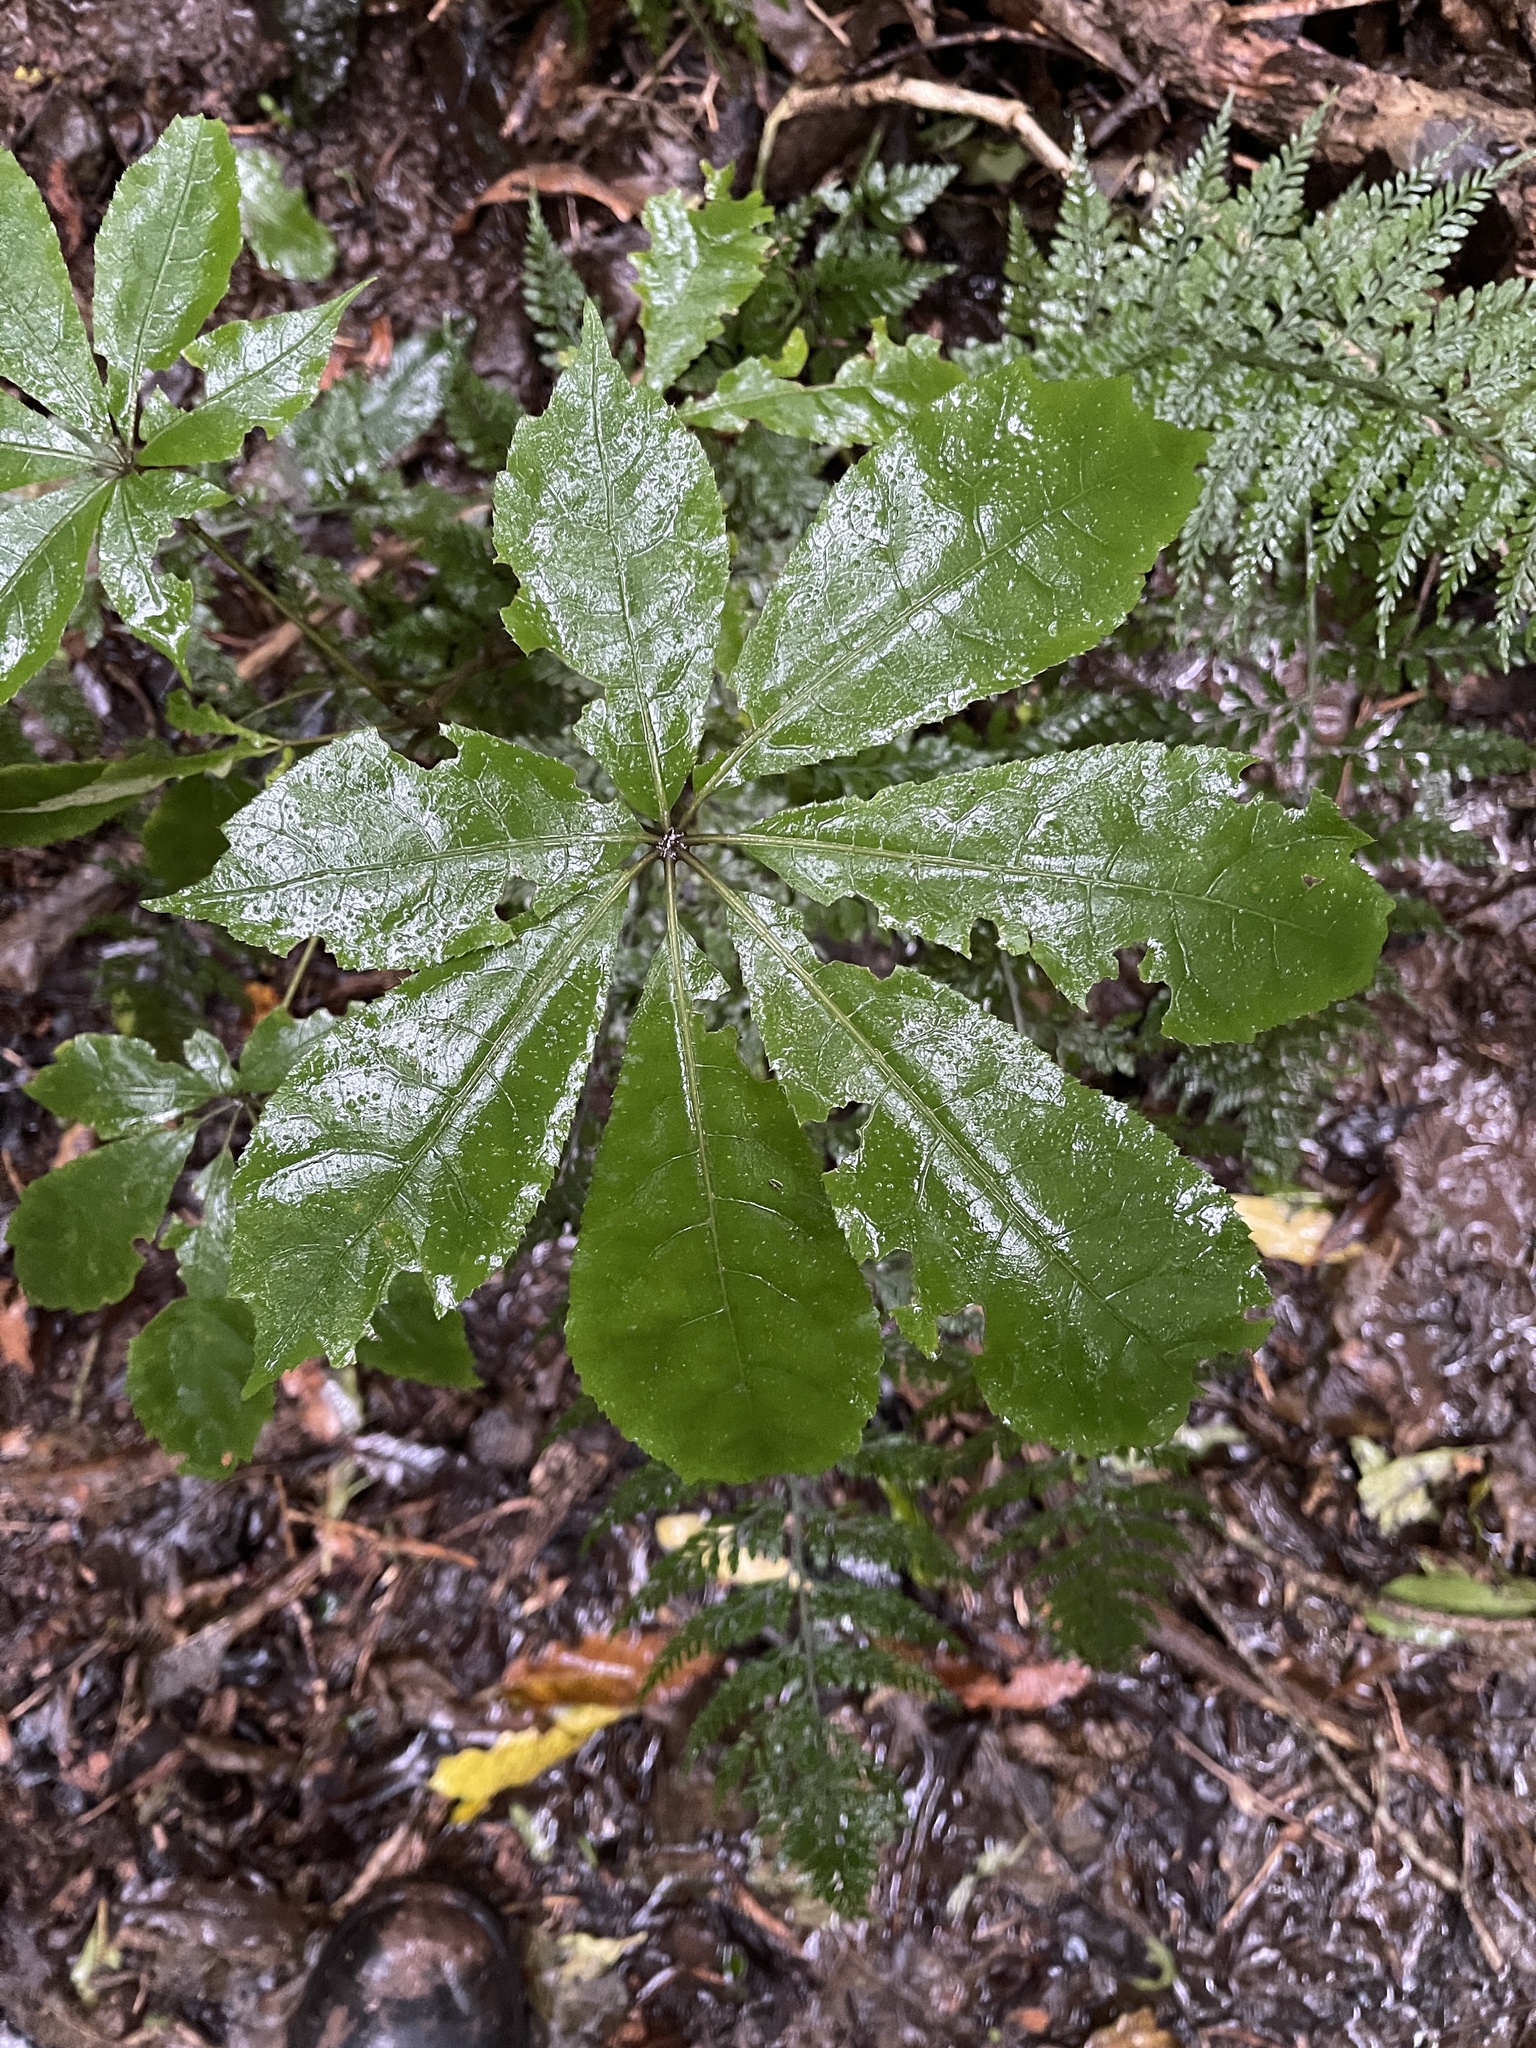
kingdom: Plantae
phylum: Tracheophyta
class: Magnoliopsida
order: Apiales
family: Araliaceae
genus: Schefflera
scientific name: Schefflera digitata
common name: Pate
